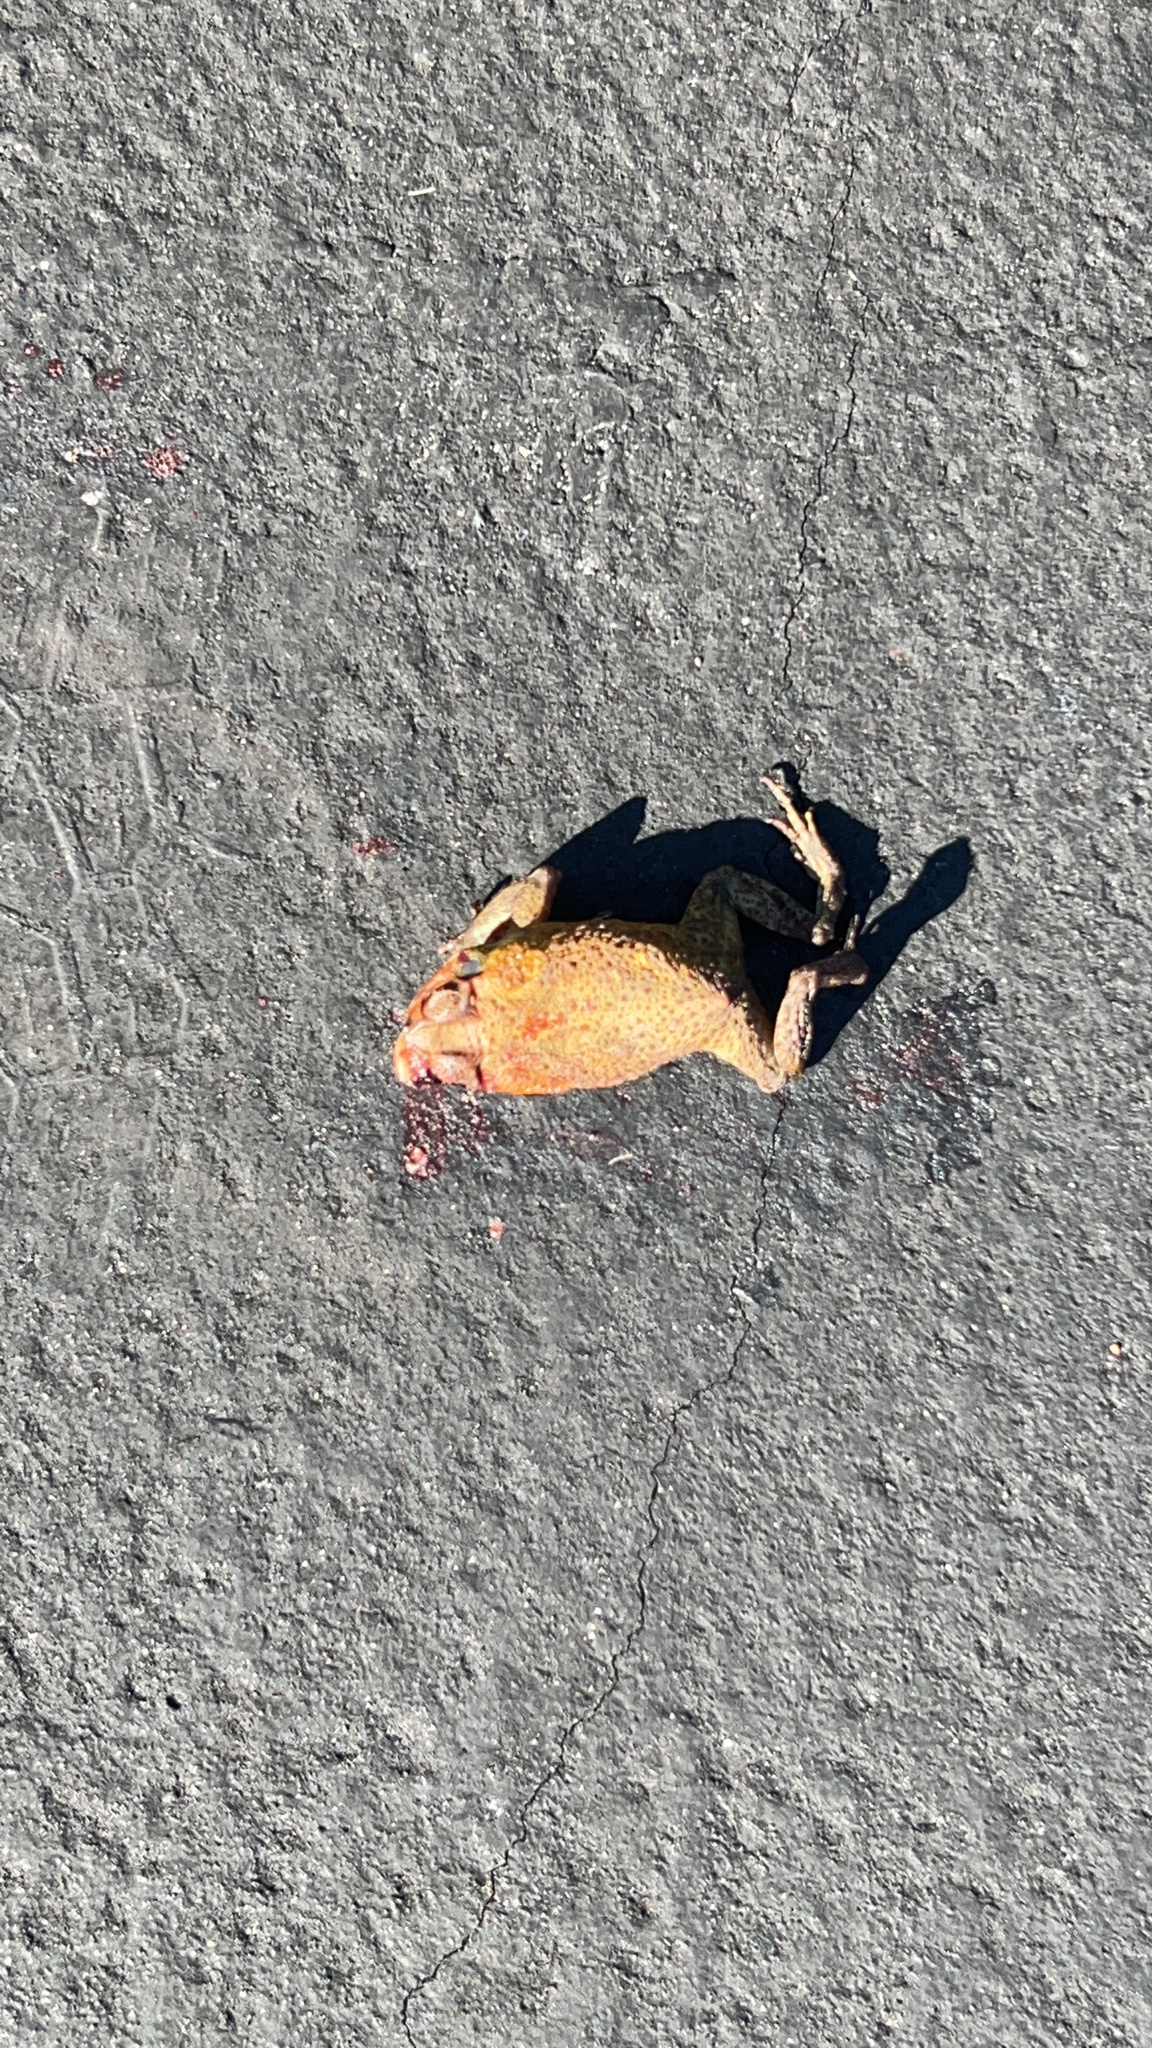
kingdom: Animalia
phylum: Chordata
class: Amphibia
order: Anura
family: Bufonidae
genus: Rhinella
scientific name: Rhinella marina
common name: Cane toad
